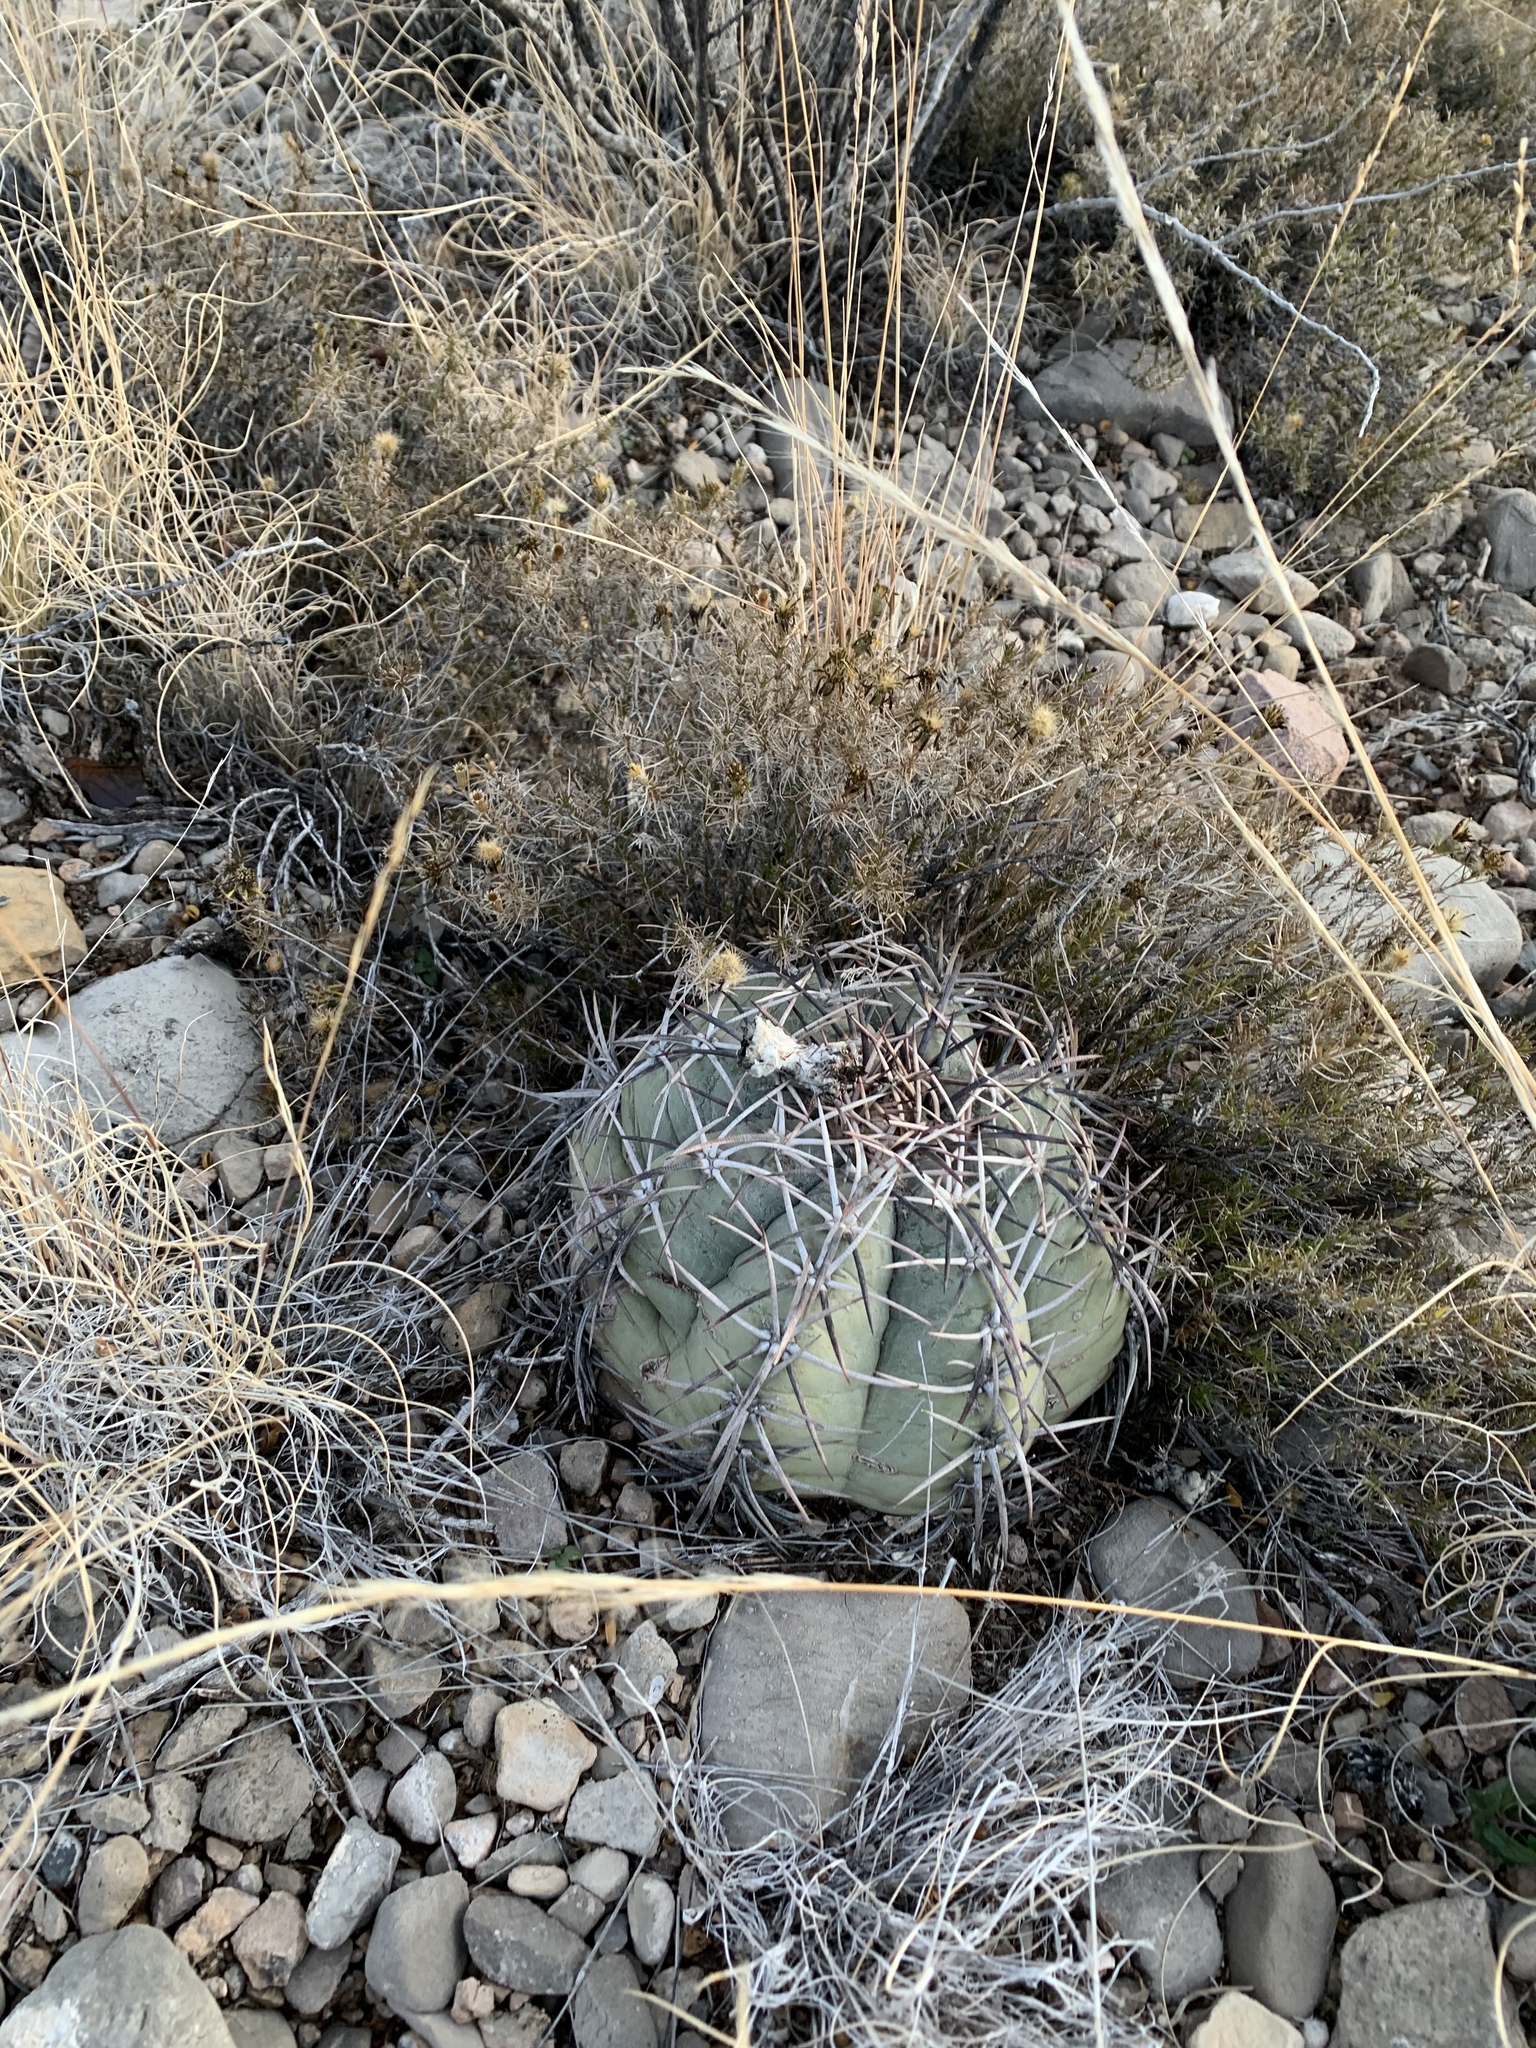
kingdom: Plantae
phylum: Tracheophyta
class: Magnoliopsida
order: Caryophyllales
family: Cactaceae
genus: Echinocactus
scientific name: Echinocactus horizonthalonius
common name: Devilshead
